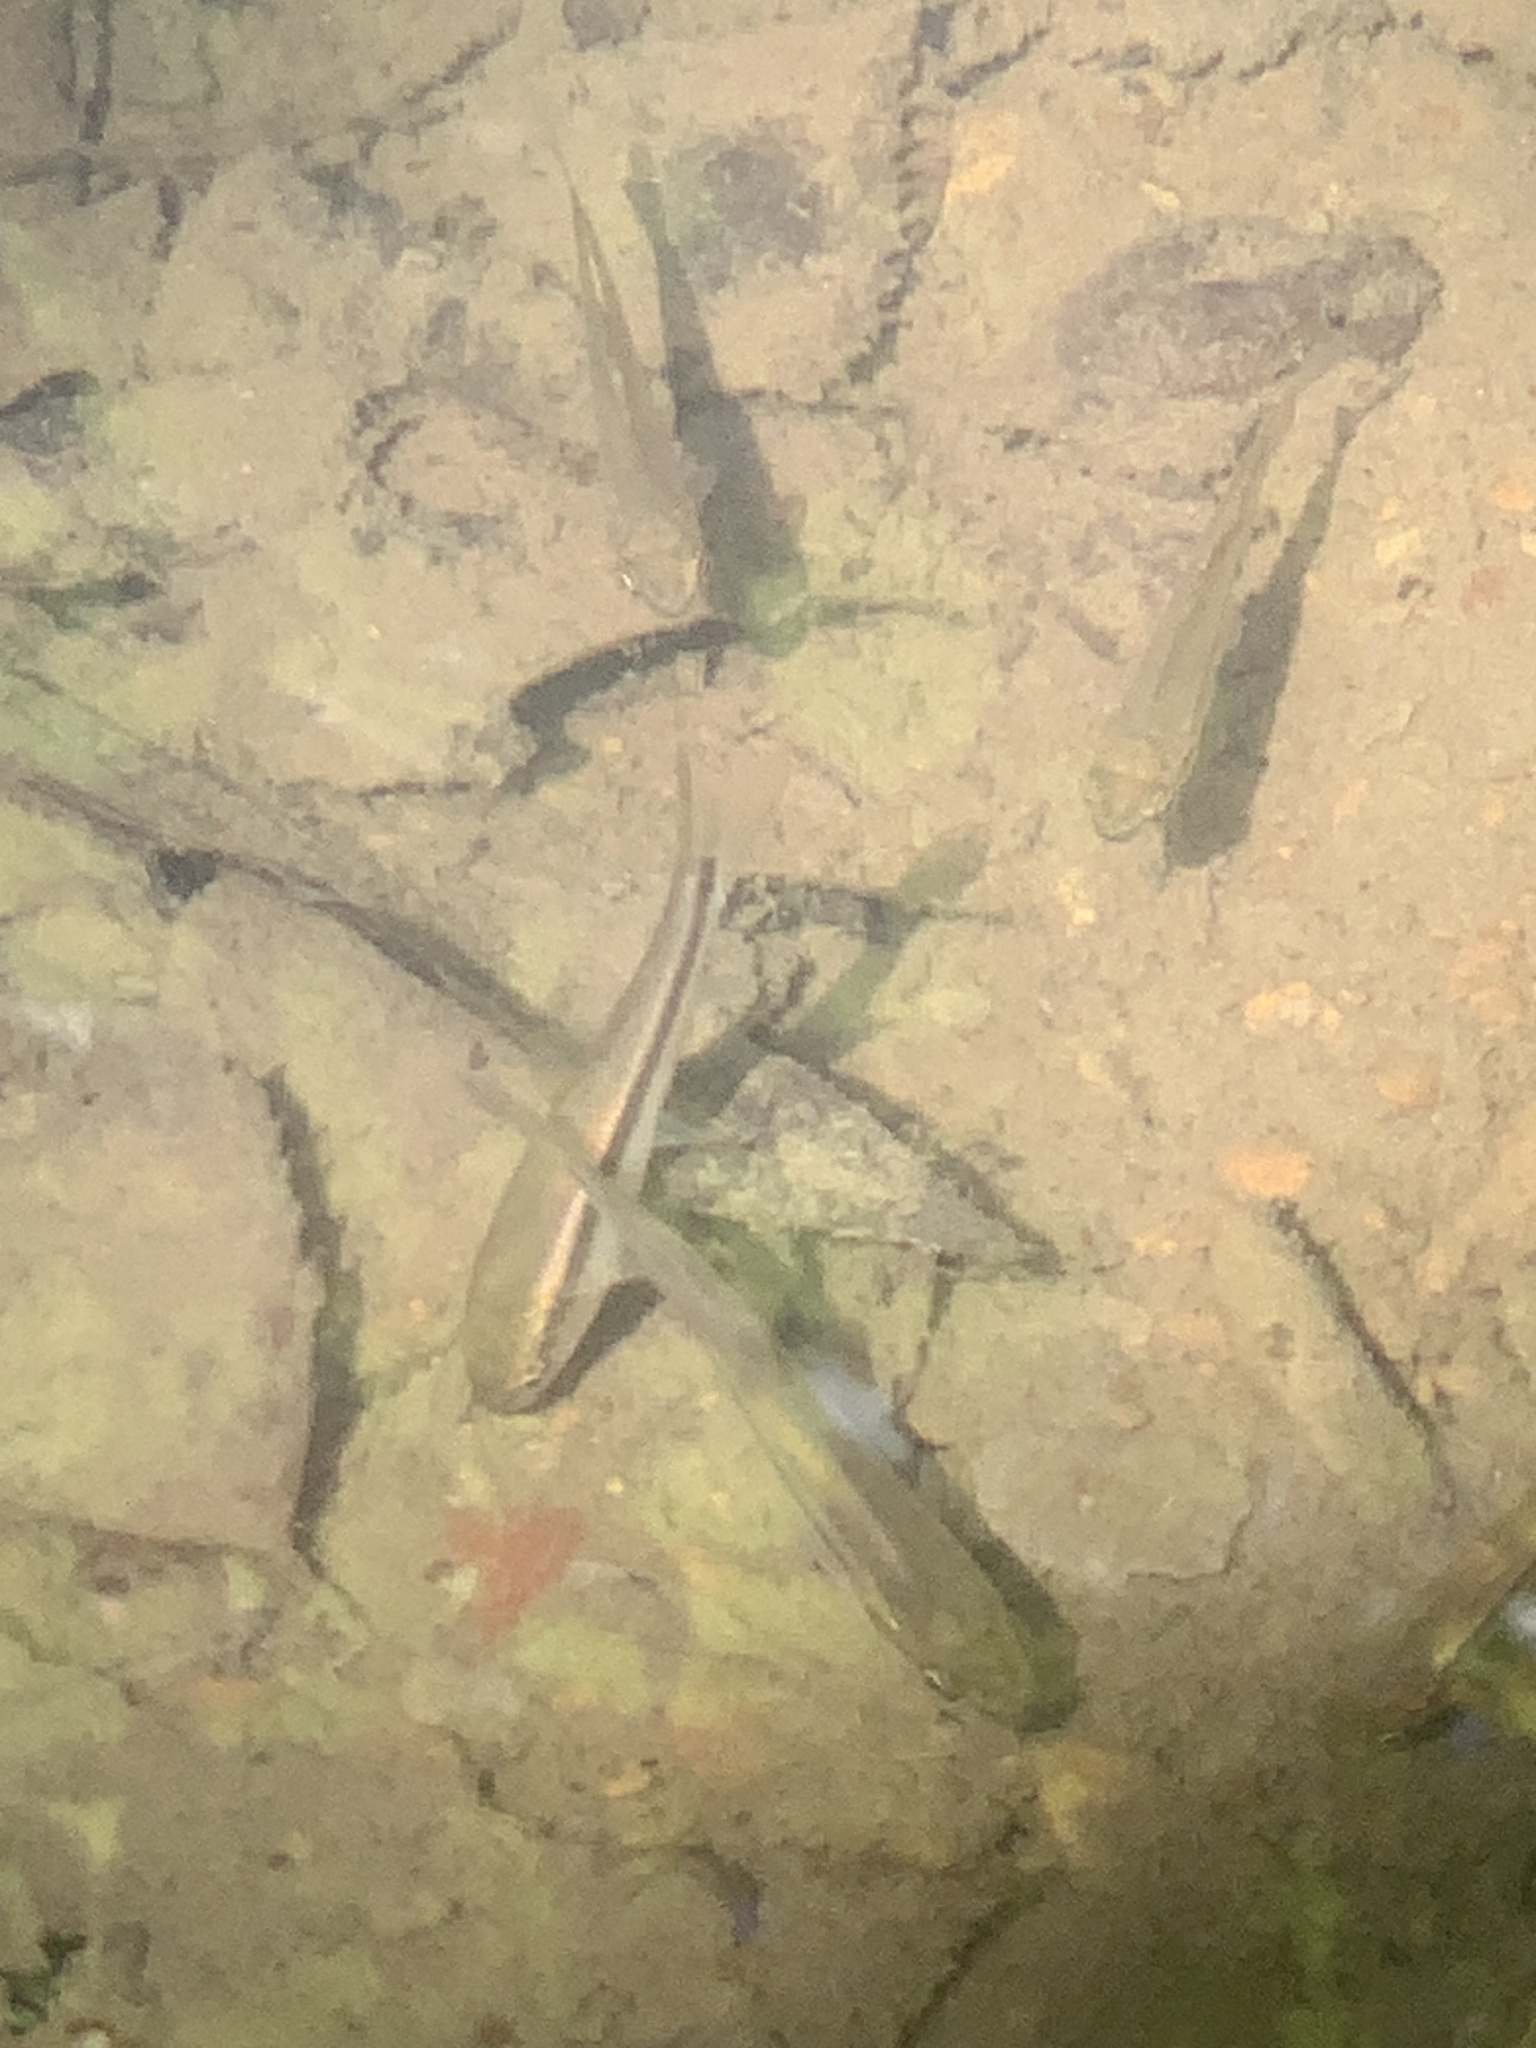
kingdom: Animalia
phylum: Chordata
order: Cypriniformes
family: Cyprinidae
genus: Semotilus
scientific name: Semotilus atromaculatus
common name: Creek chub
